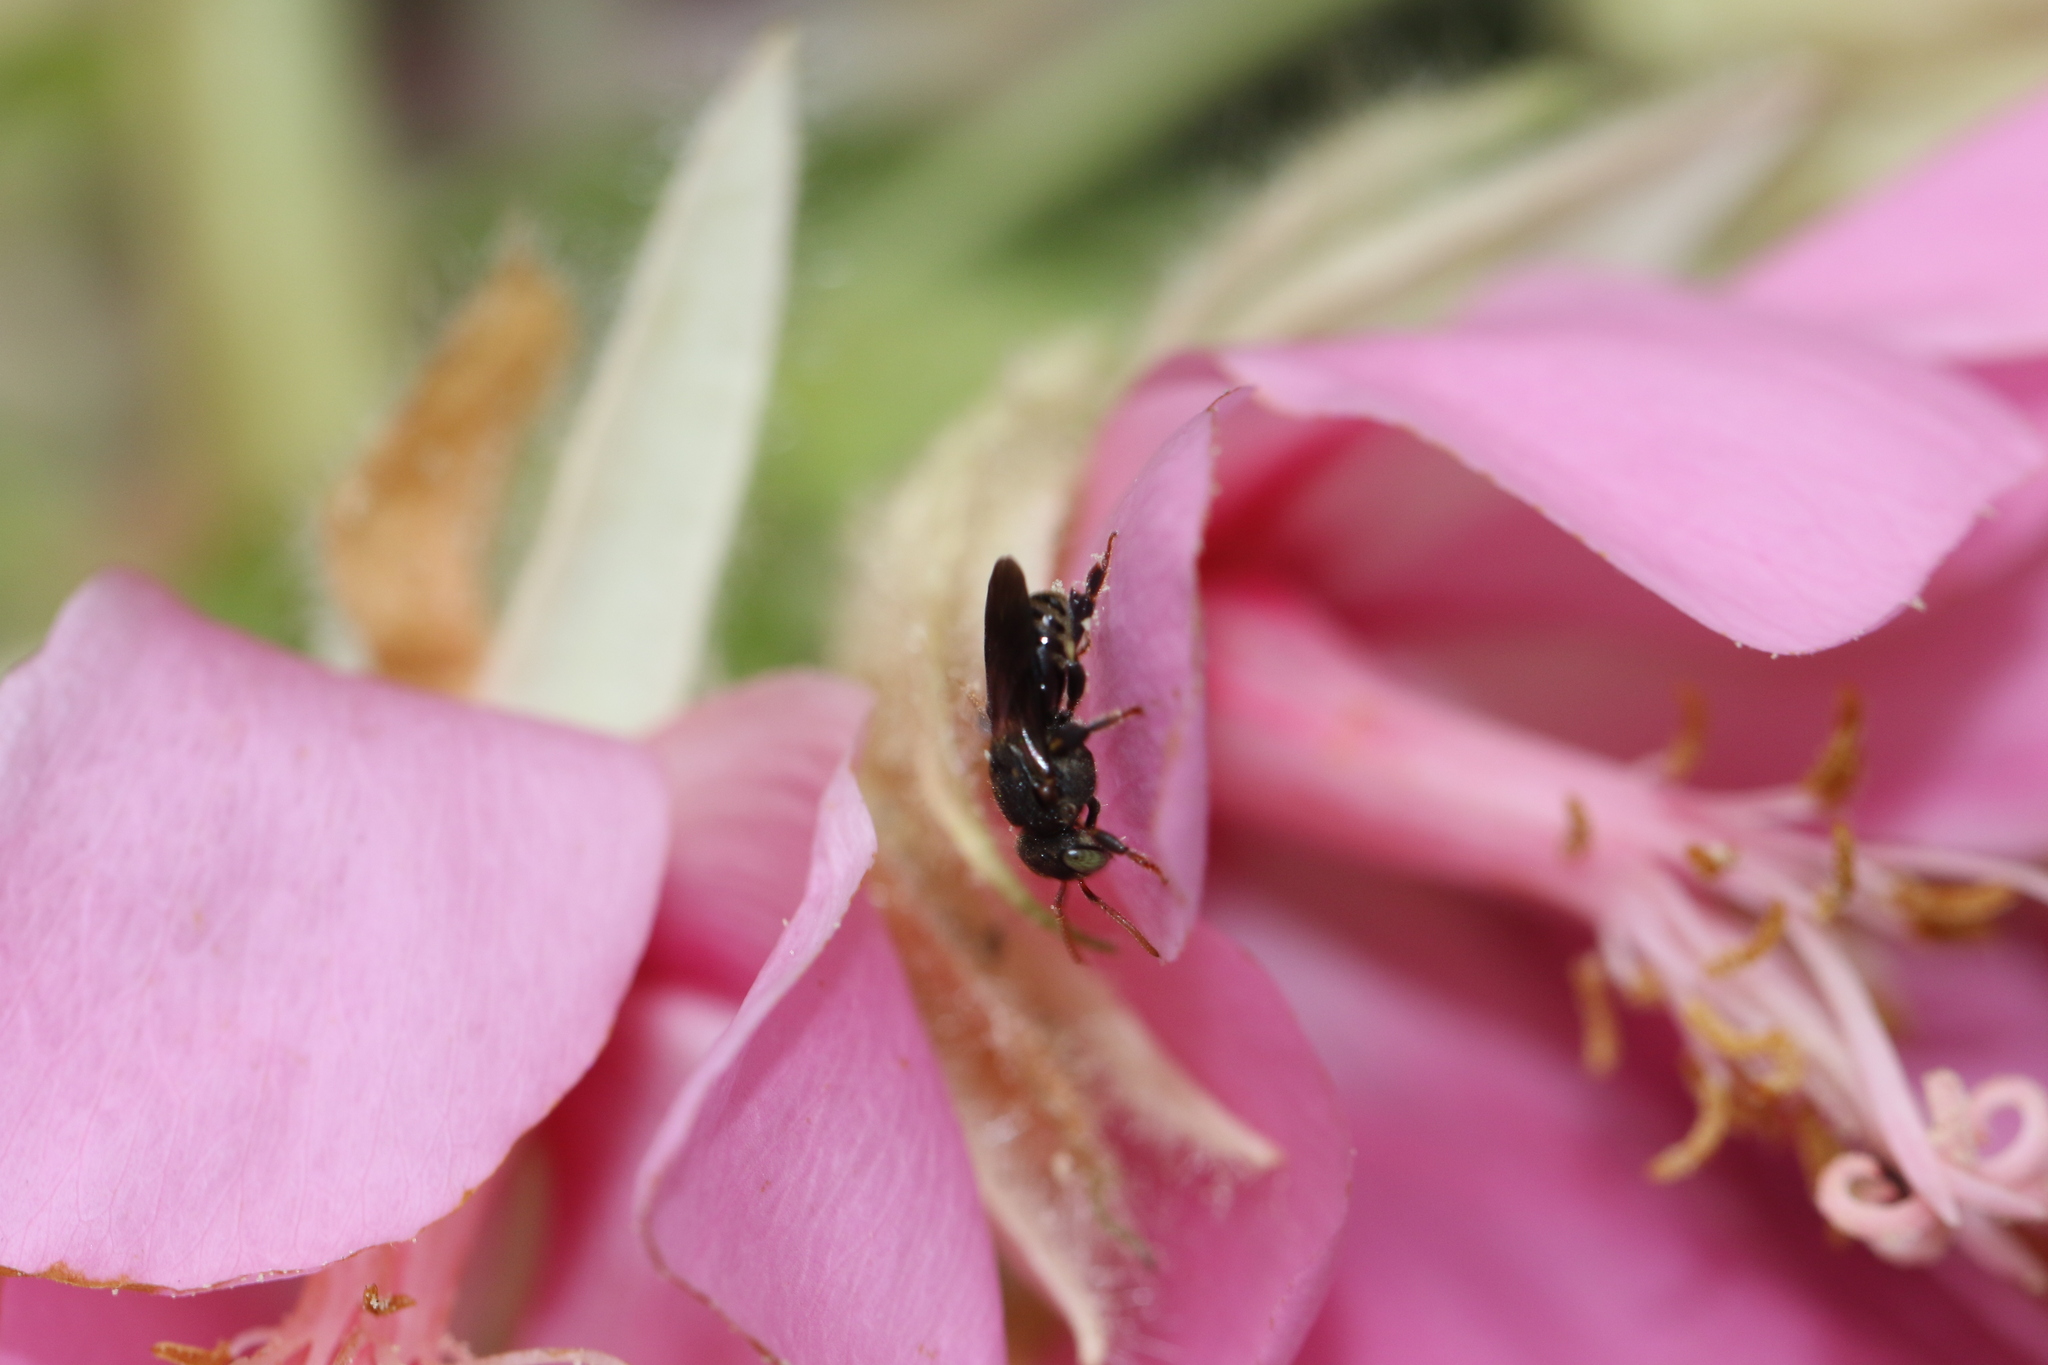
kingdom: Animalia
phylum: Arthropoda
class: Insecta
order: Hymenoptera
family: Apidae
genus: Nannotrigona
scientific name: Nannotrigona testaceicornis
